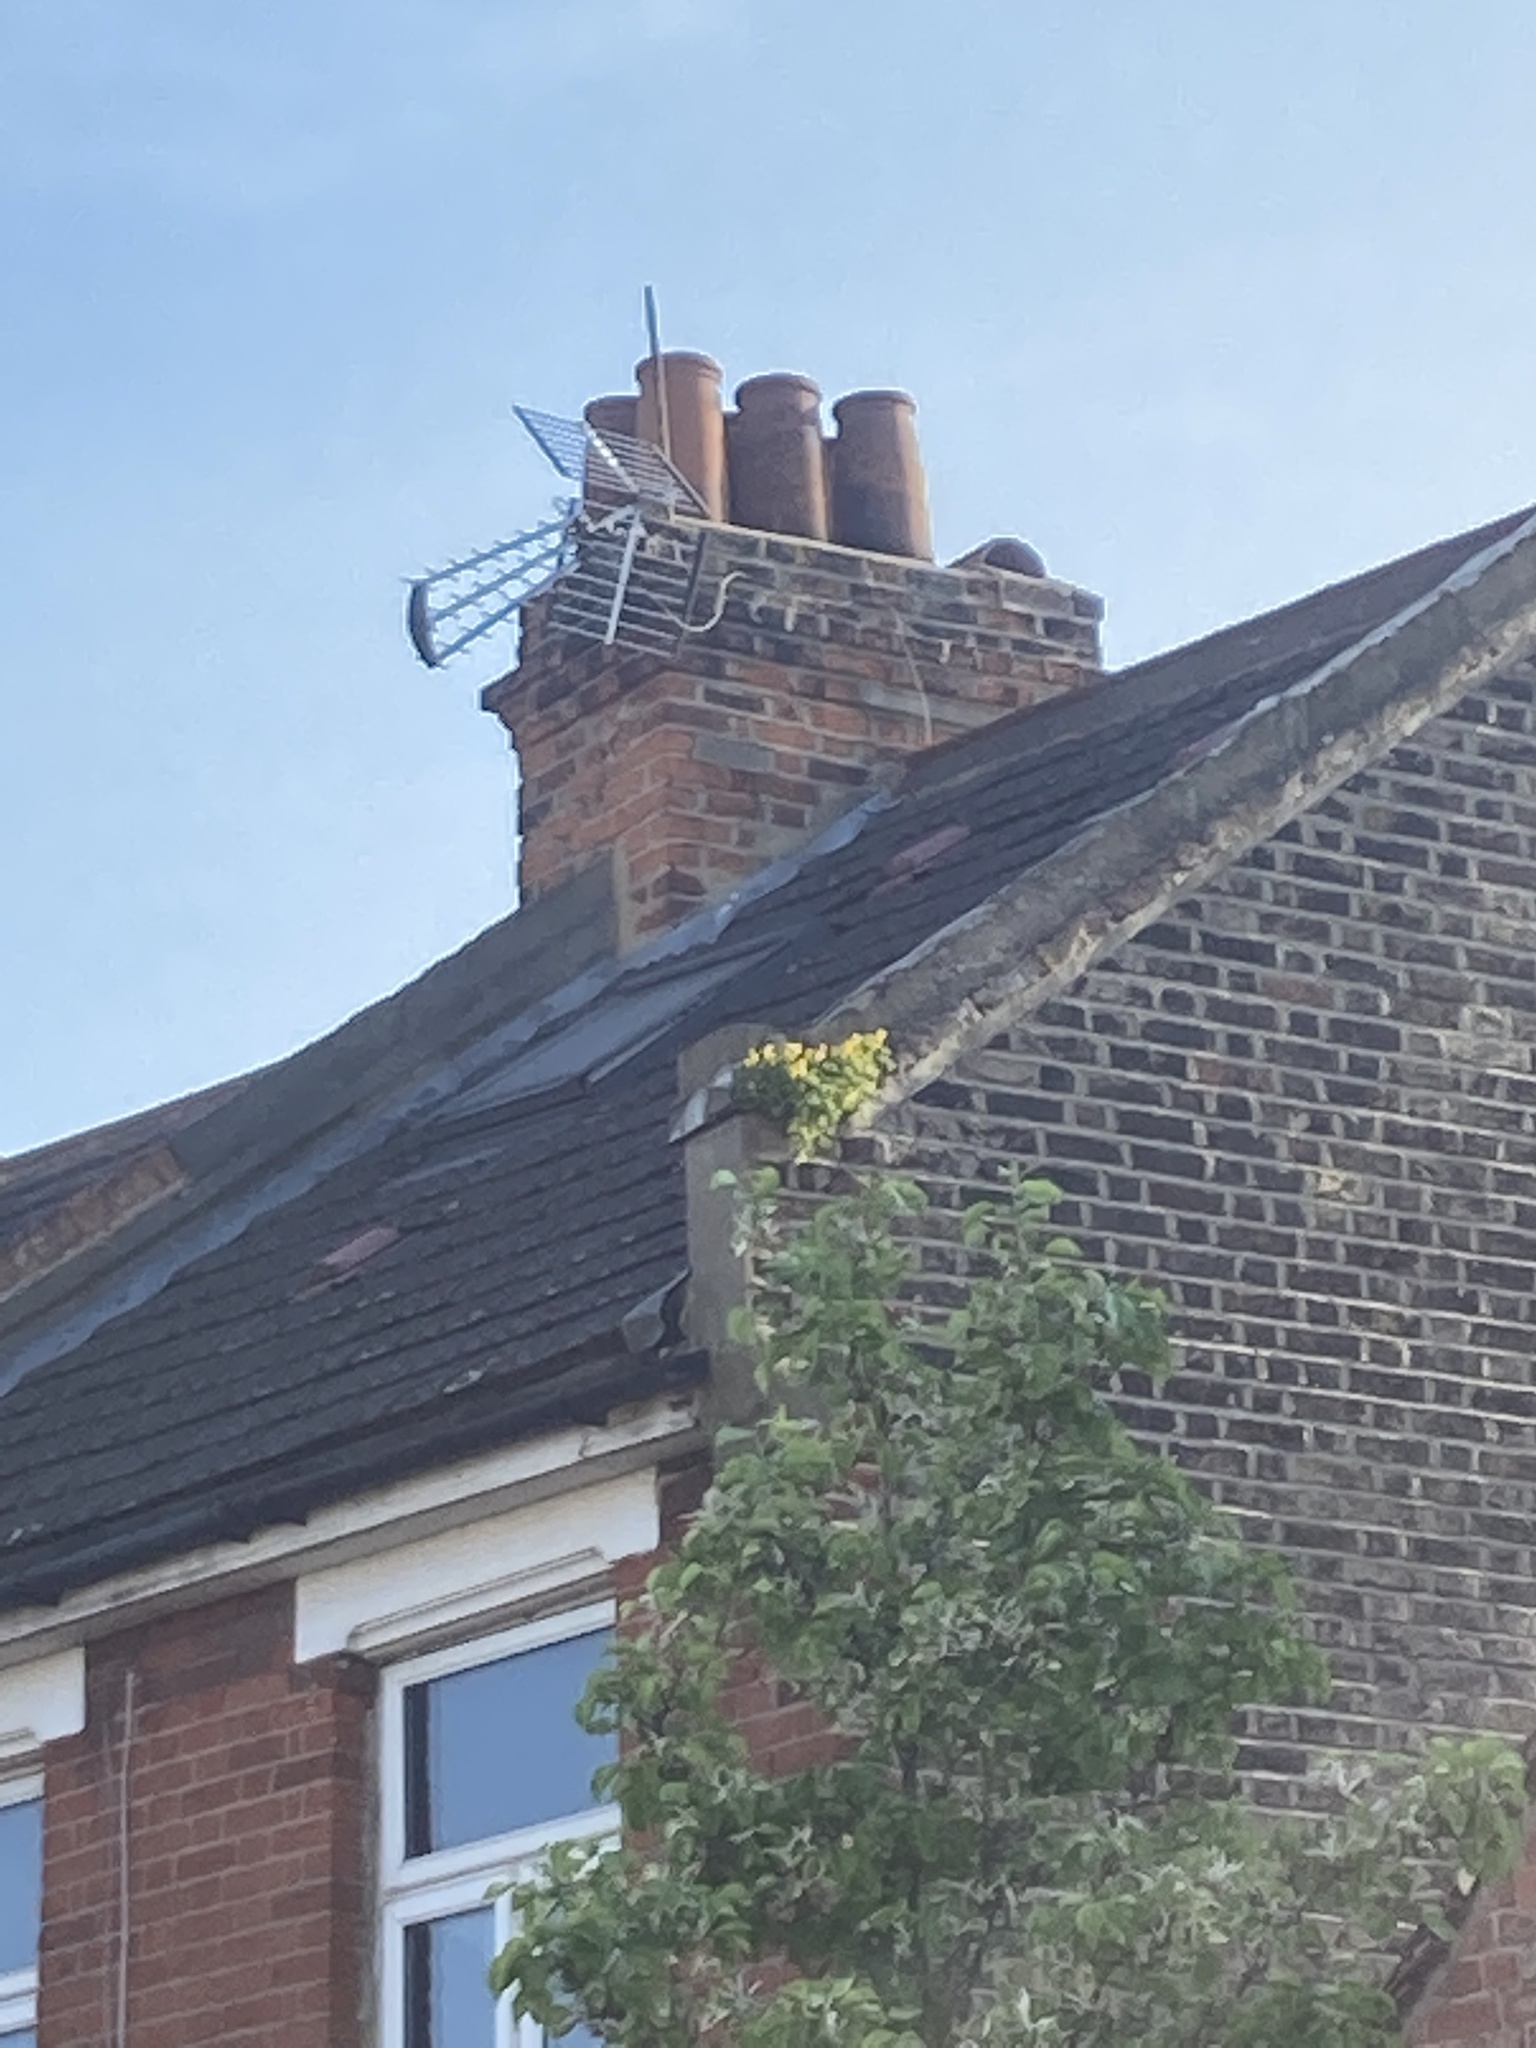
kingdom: Plantae
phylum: Tracheophyta
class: Magnoliopsida
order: Ranunculales
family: Papaveraceae
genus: Pseudofumaria
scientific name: Pseudofumaria lutea
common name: Yellow corydalis
